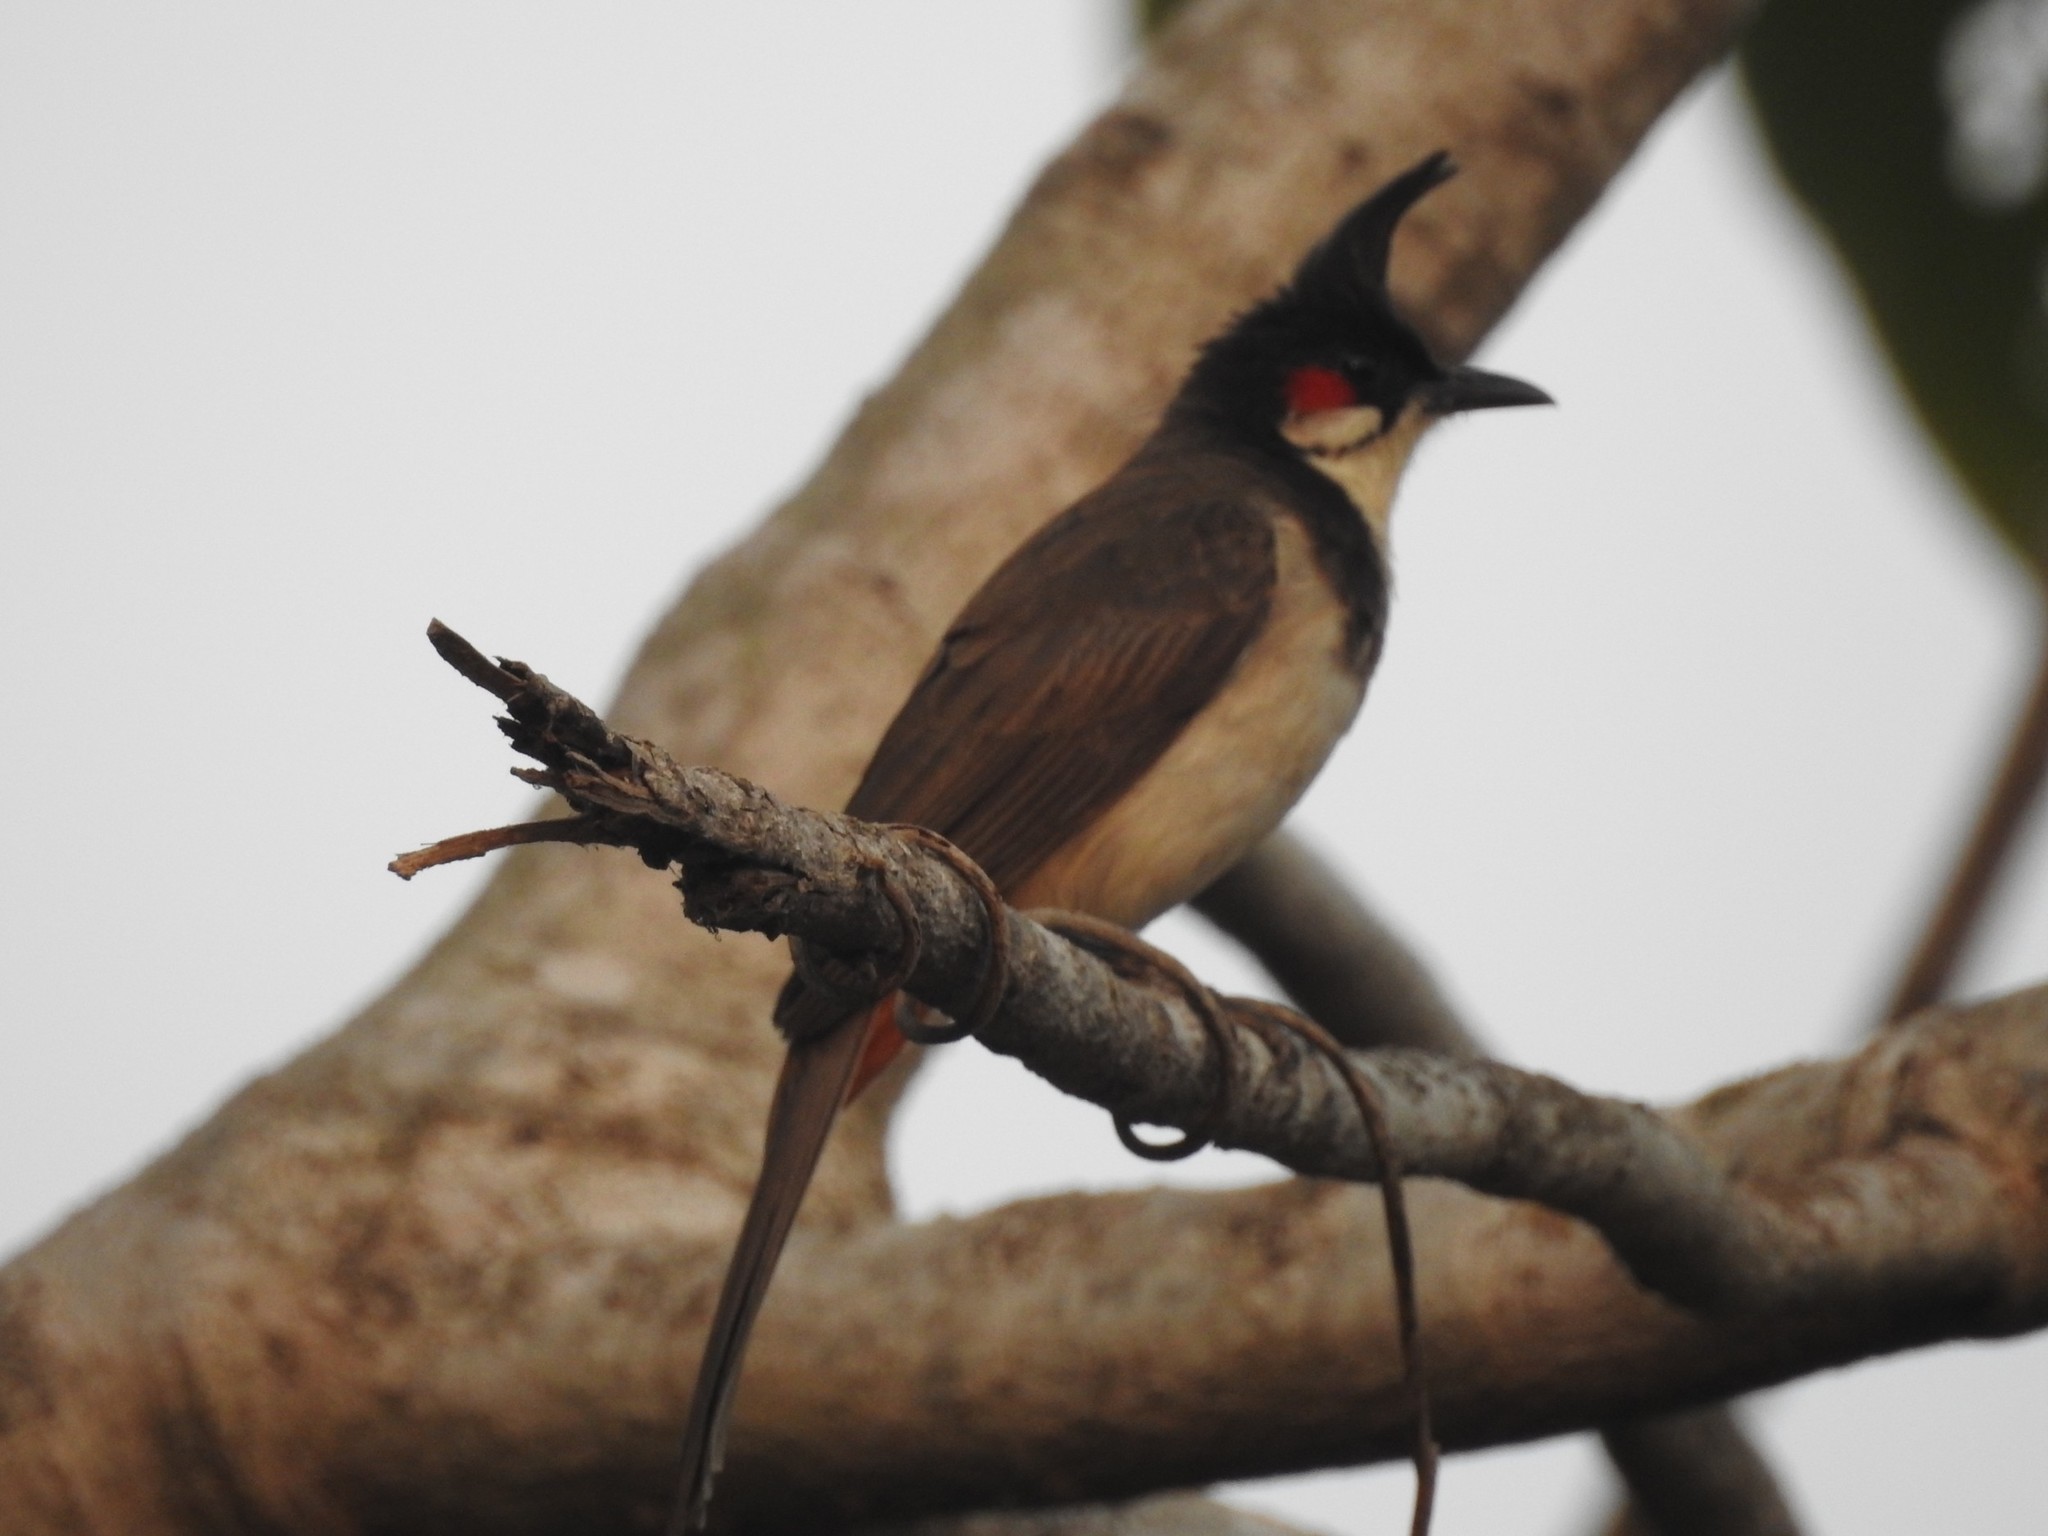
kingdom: Animalia
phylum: Chordata
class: Aves
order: Passeriformes
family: Pycnonotidae
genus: Pycnonotus
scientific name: Pycnonotus jocosus
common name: Red-whiskered bulbul
